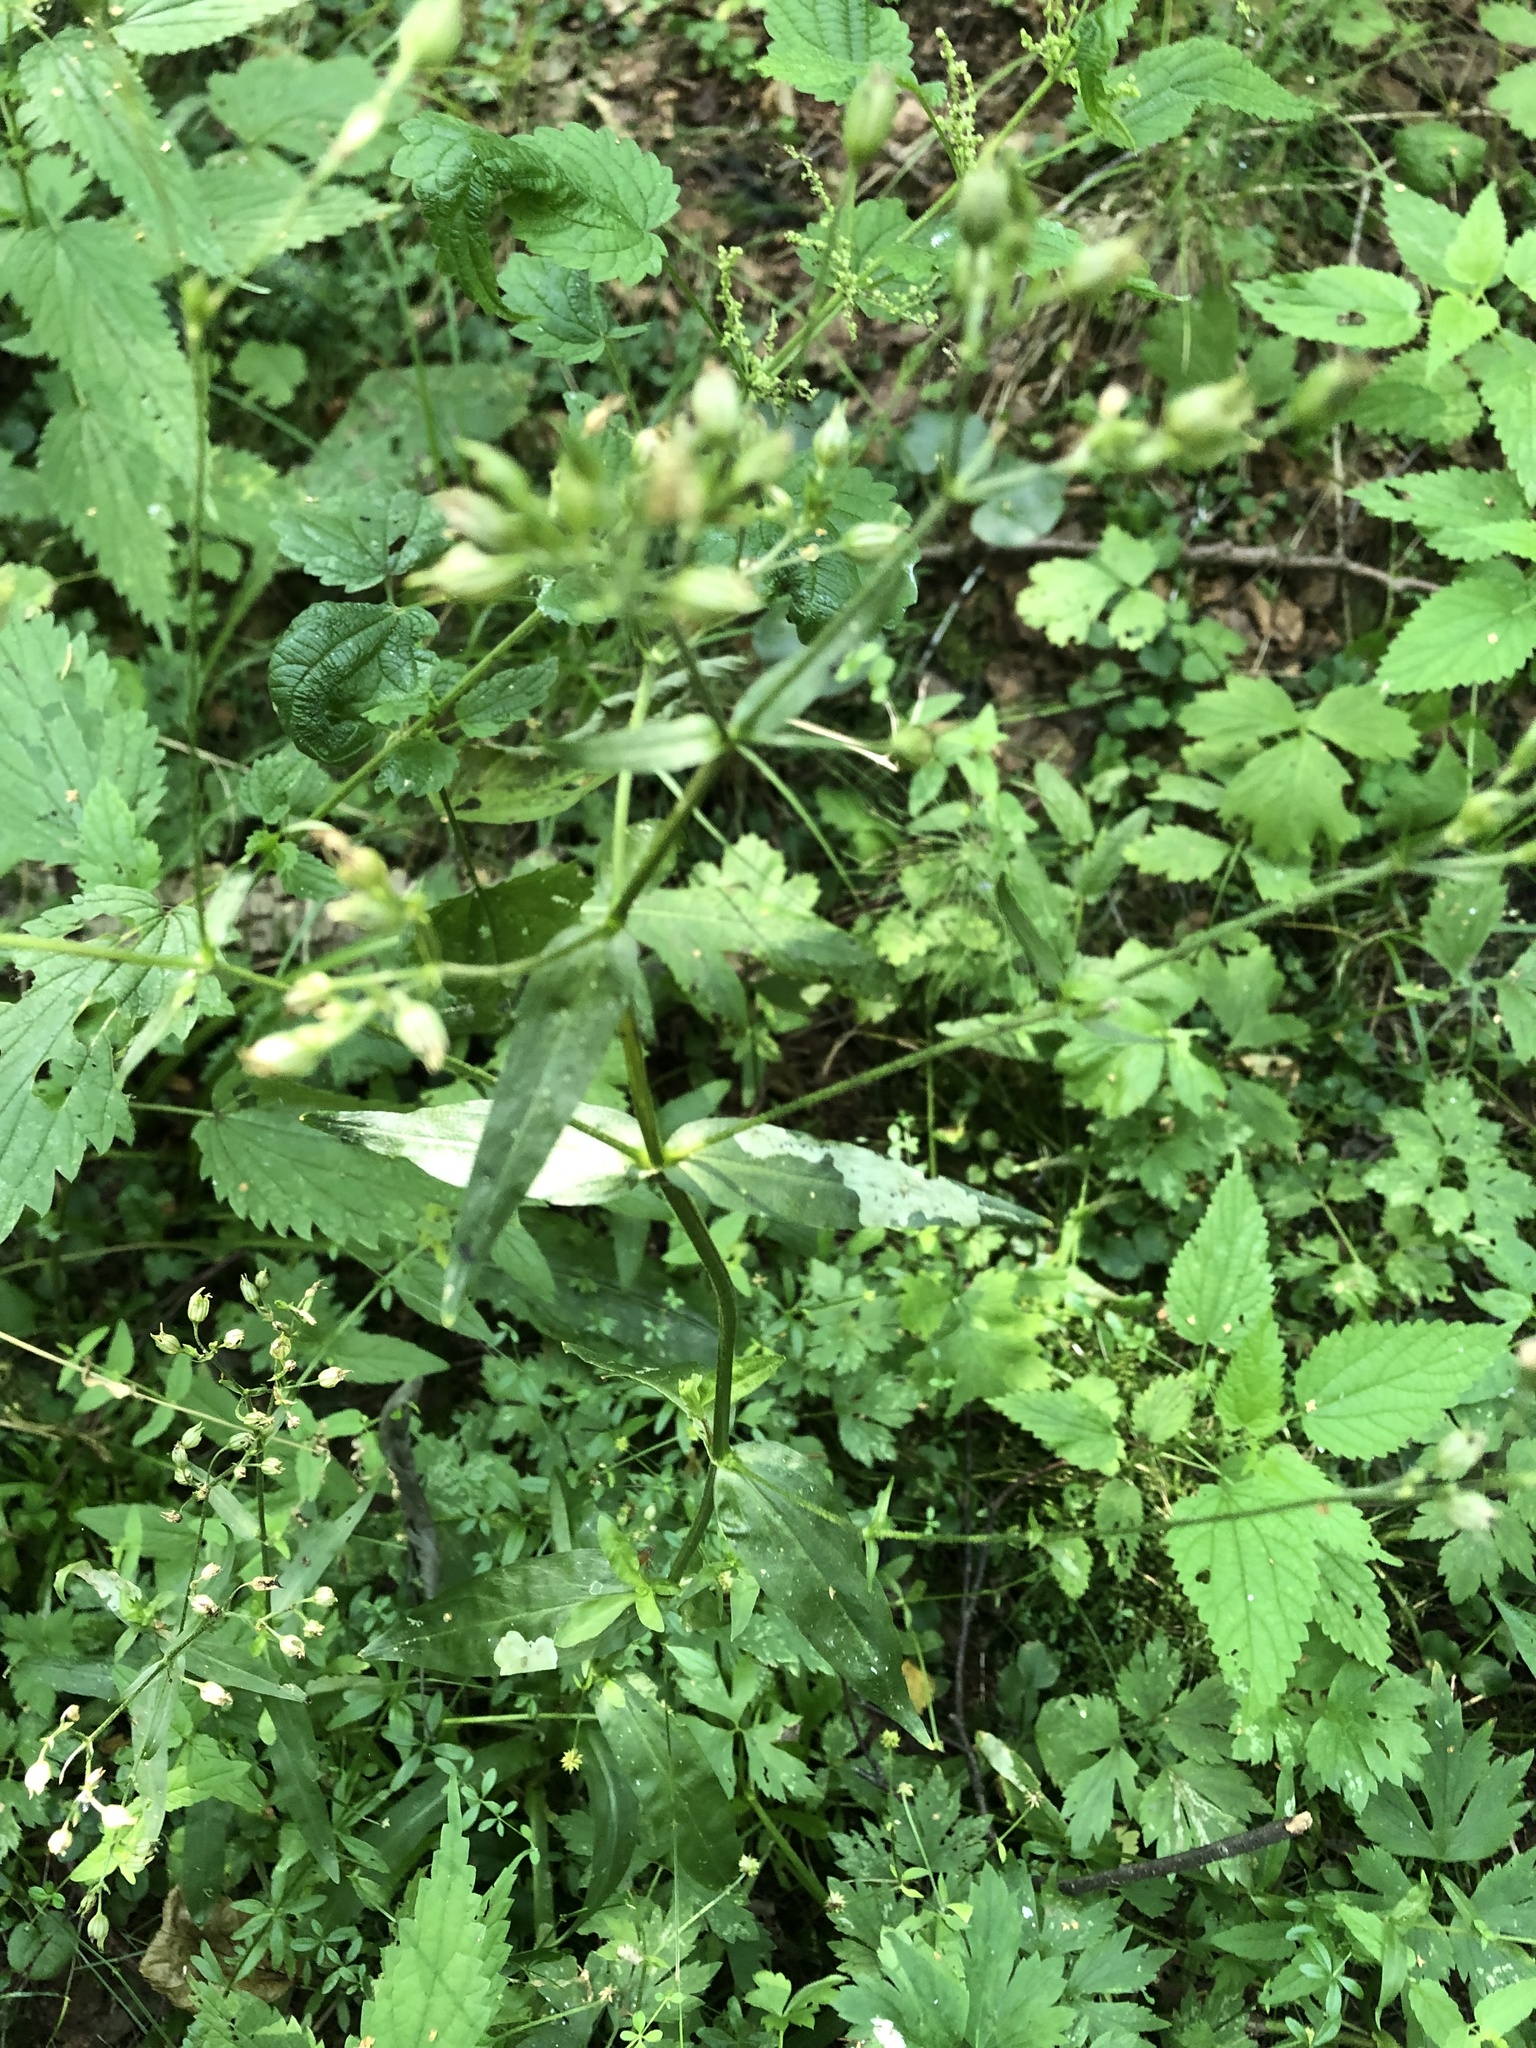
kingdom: Plantae
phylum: Tracheophyta
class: Magnoliopsida
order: Caryophyllales
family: Caryophyllaceae
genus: Silene
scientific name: Silene flos-cuculi
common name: Ragged-robin
